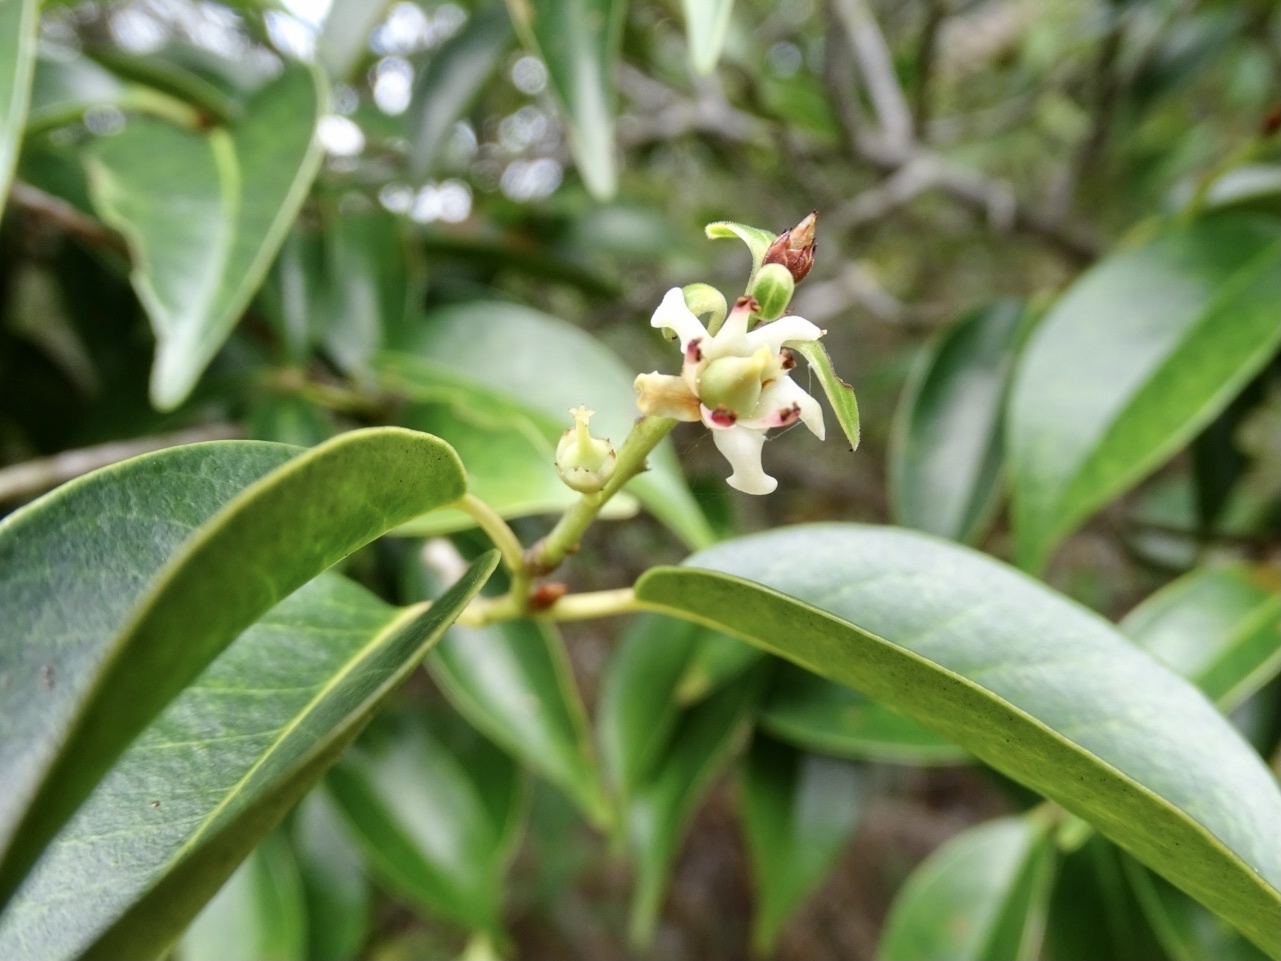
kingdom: Plantae
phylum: Tracheophyta
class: Magnoliopsida
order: Ericales
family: Pentaphylacaceae
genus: Pentaphylax
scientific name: Pentaphylax euryoides
